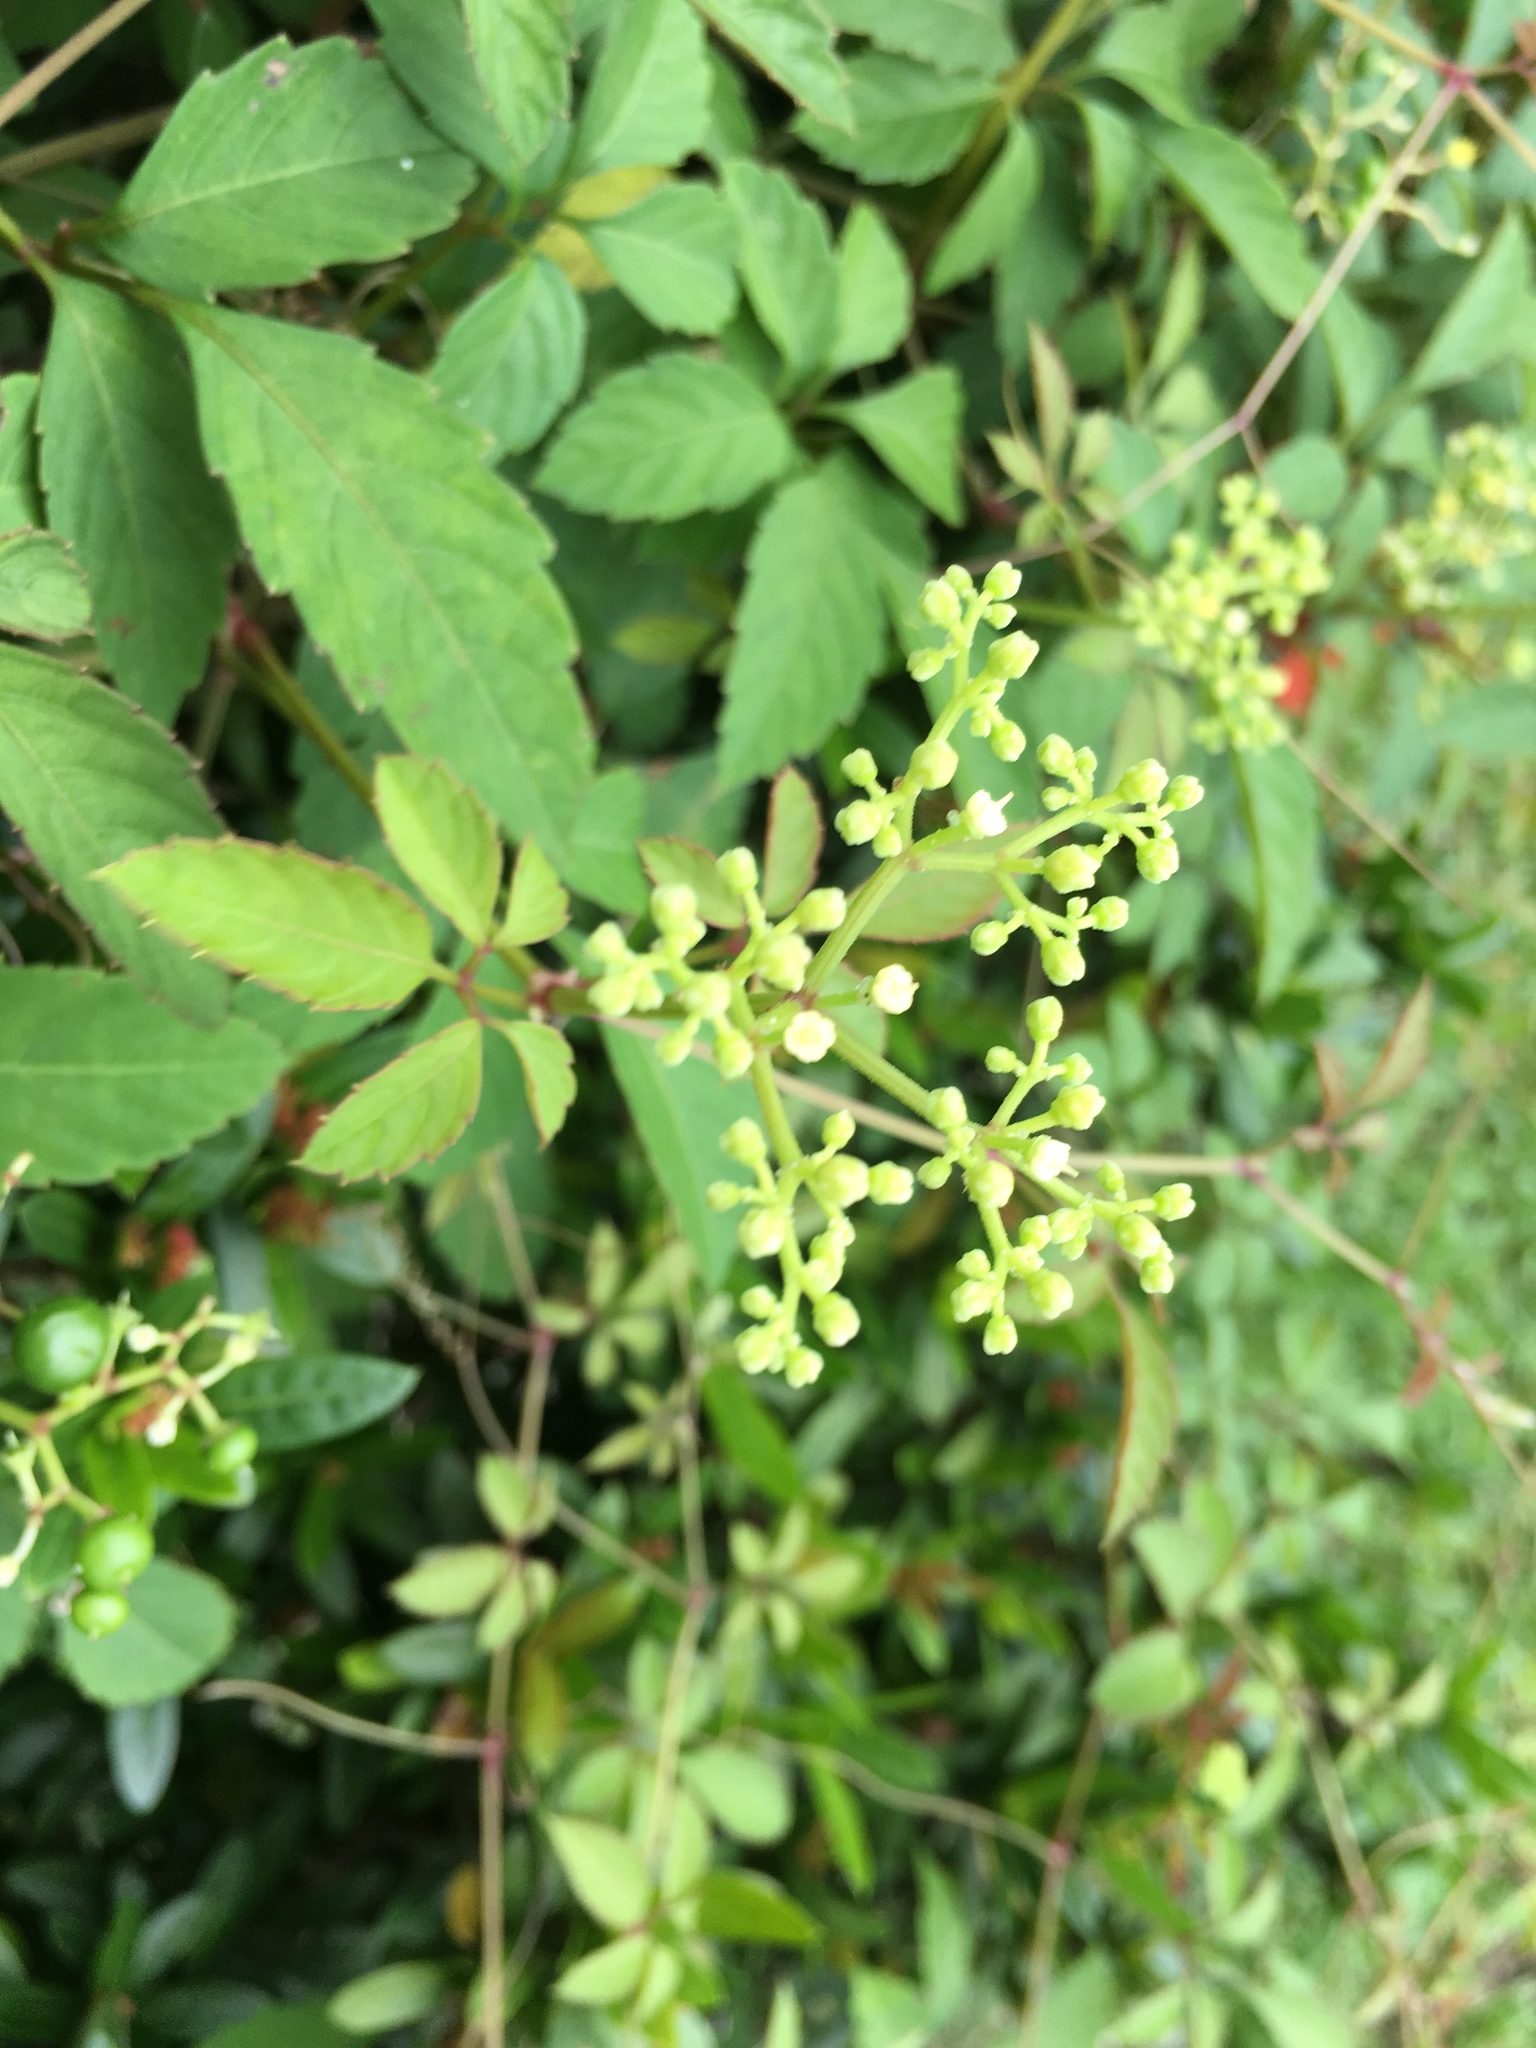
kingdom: Plantae
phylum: Tracheophyta
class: Magnoliopsida
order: Vitales
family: Vitaceae
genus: Causonis
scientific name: Causonis japonica
